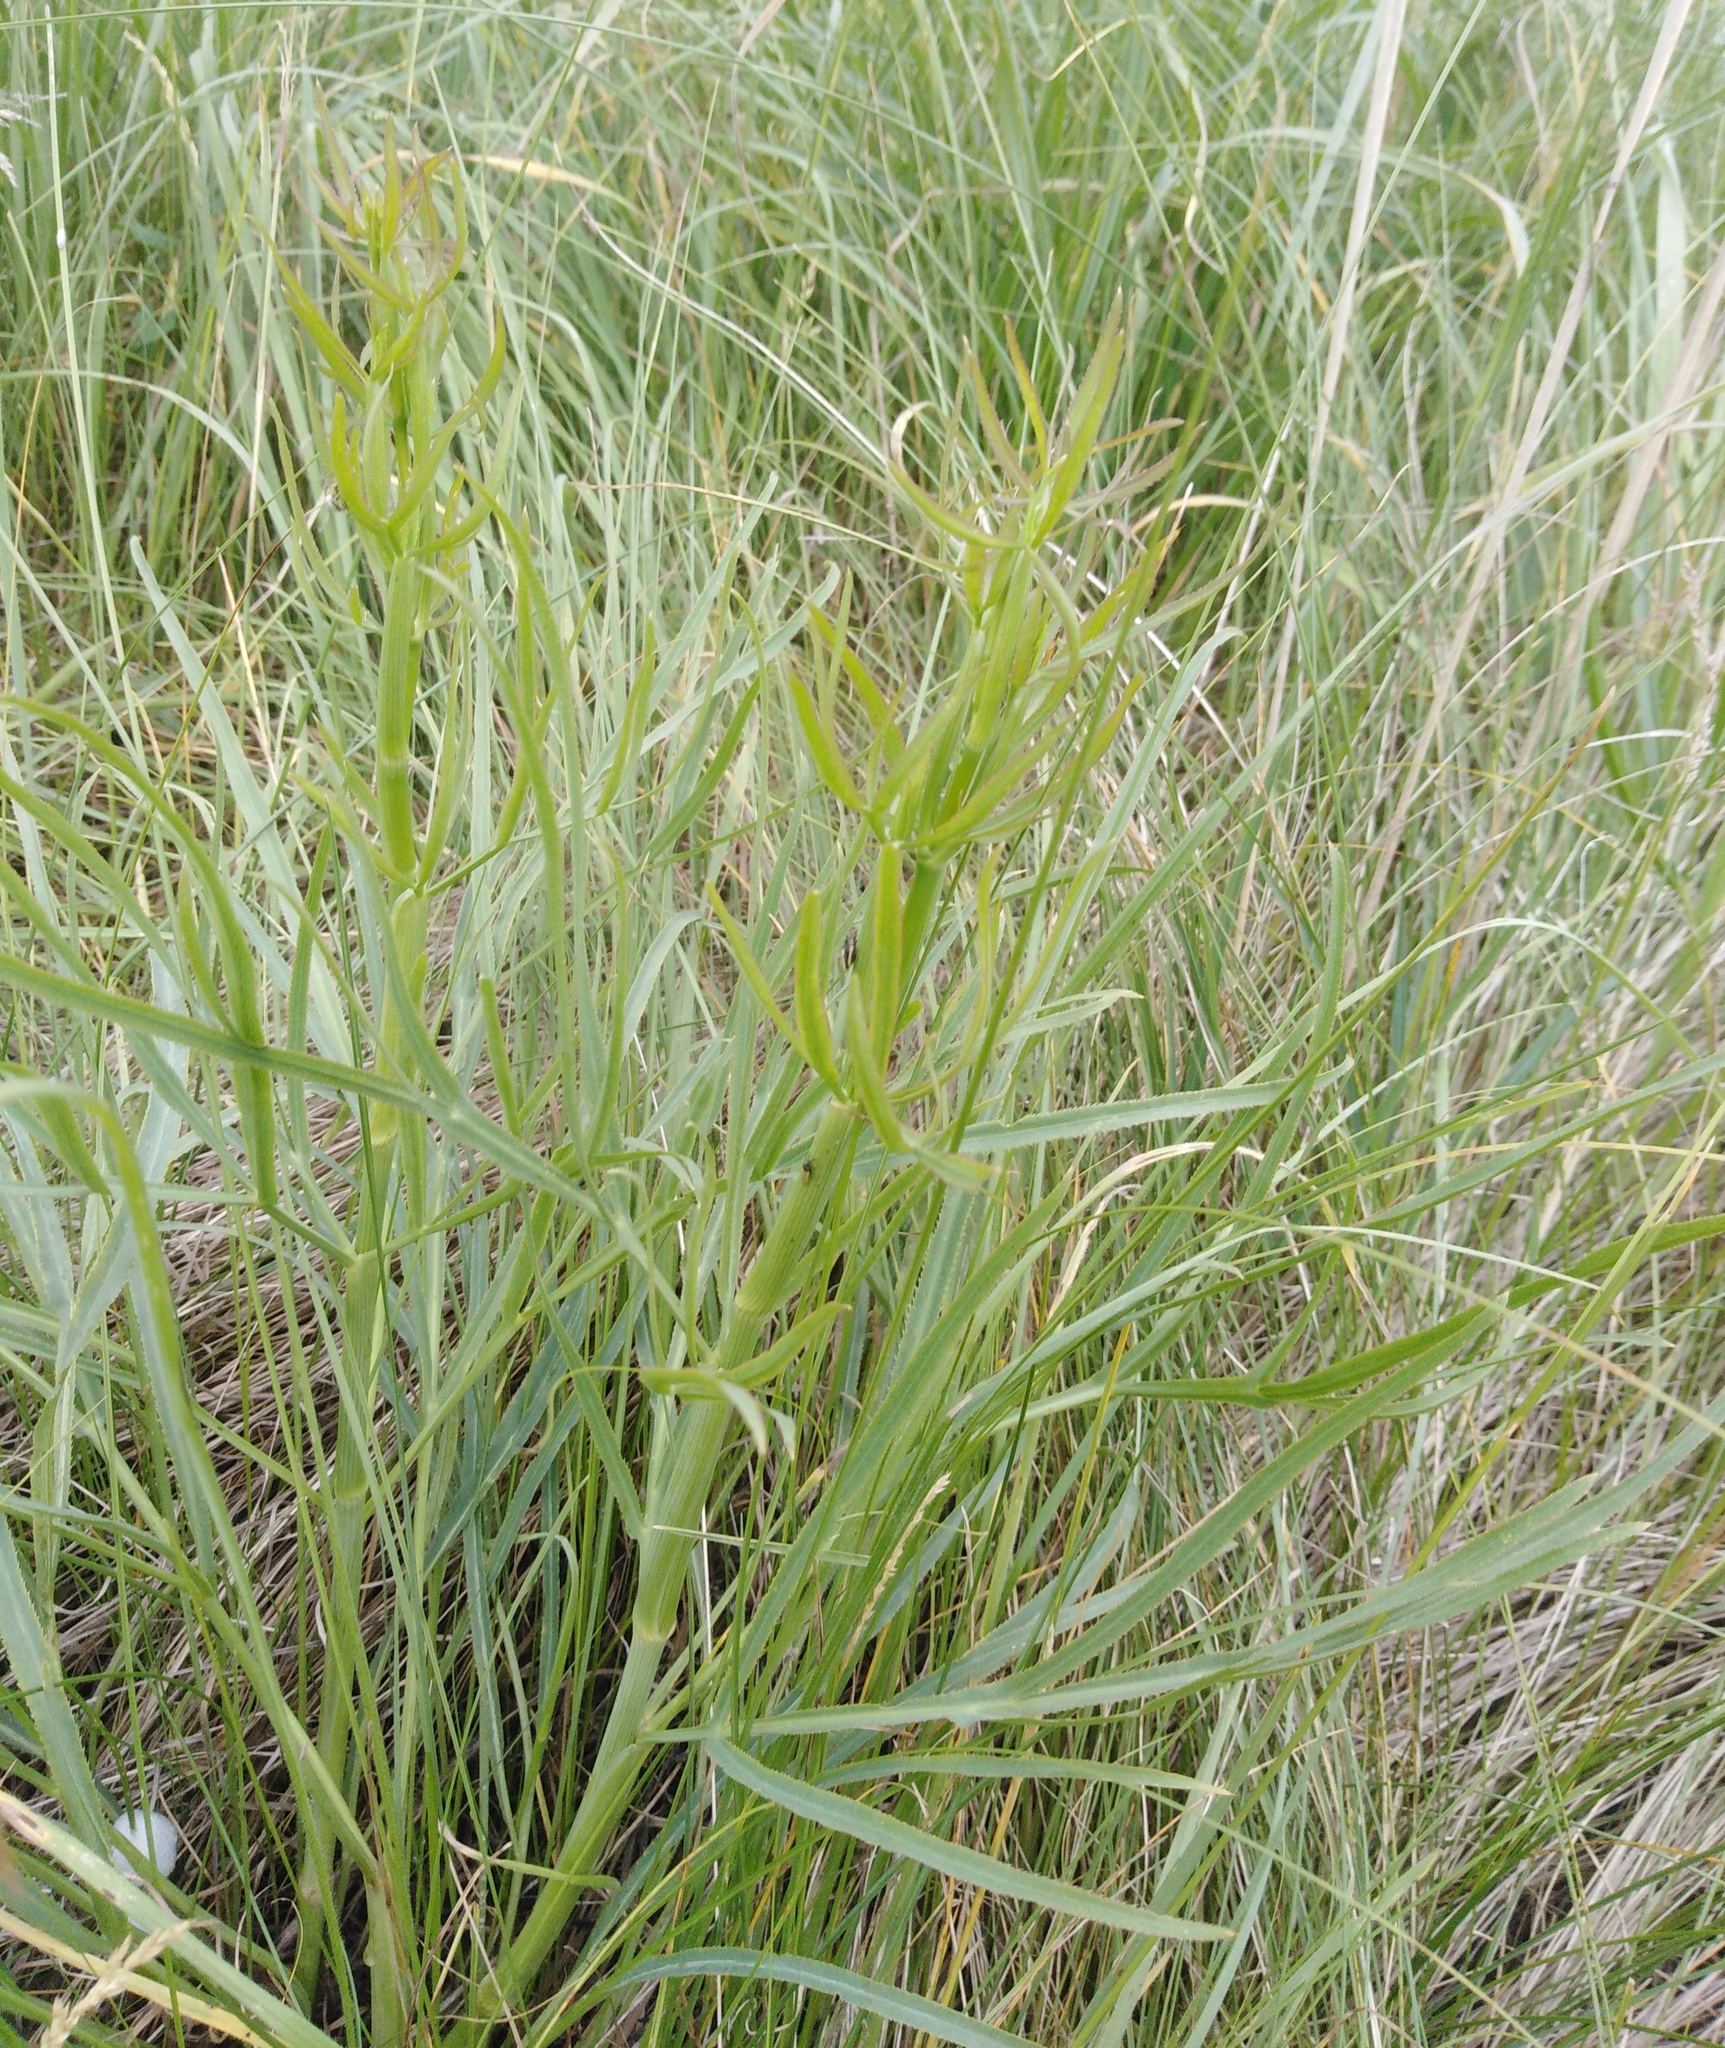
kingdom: Plantae
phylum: Tracheophyta
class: Magnoliopsida
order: Apiales
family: Apiaceae
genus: Falcaria
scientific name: Falcaria vulgaris
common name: Longleaf
